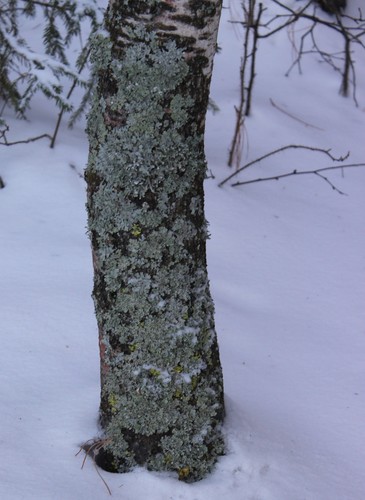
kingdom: Fungi
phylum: Ascomycota
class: Lecanoromycetes
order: Lecanorales
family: Parmeliaceae
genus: Parmelia
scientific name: Parmelia
